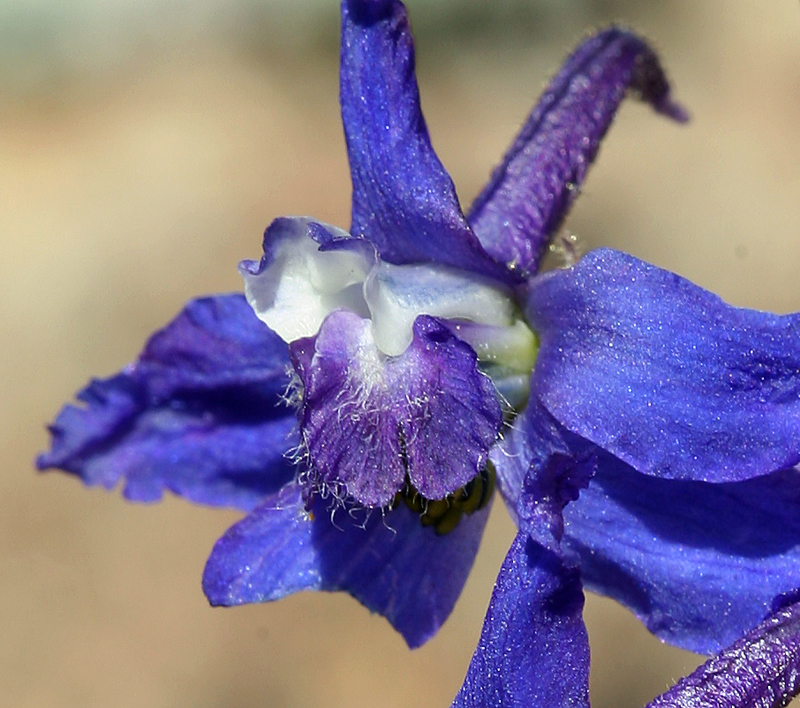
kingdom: Plantae
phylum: Tracheophyta
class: Magnoliopsida
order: Ranunculales
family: Ranunculaceae
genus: Delphinium
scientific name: Delphinium andersonii
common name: Anderson's larkspur
